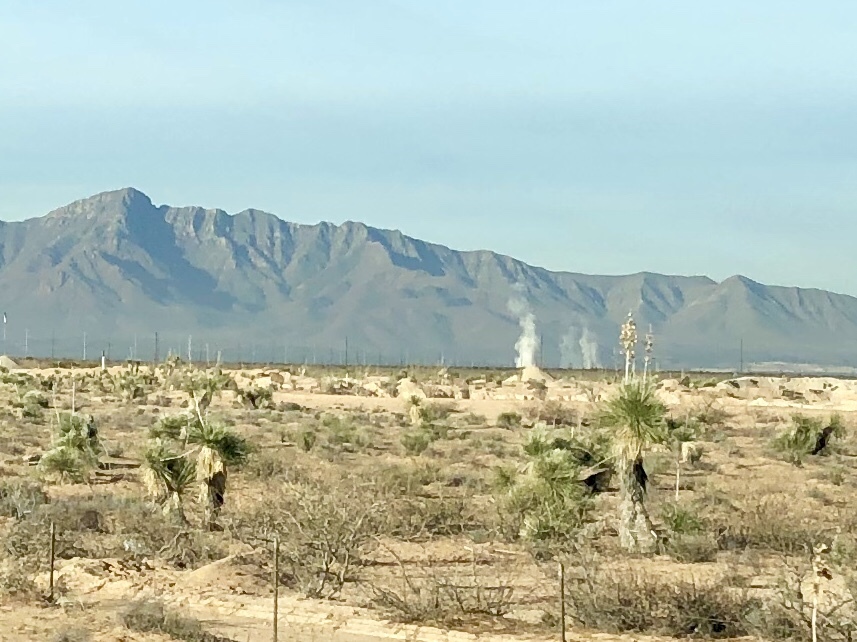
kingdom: Plantae
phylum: Tracheophyta
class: Liliopsida
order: Asparagales
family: Asparagaceae
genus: Yucca
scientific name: Yucca elata
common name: Palmella
